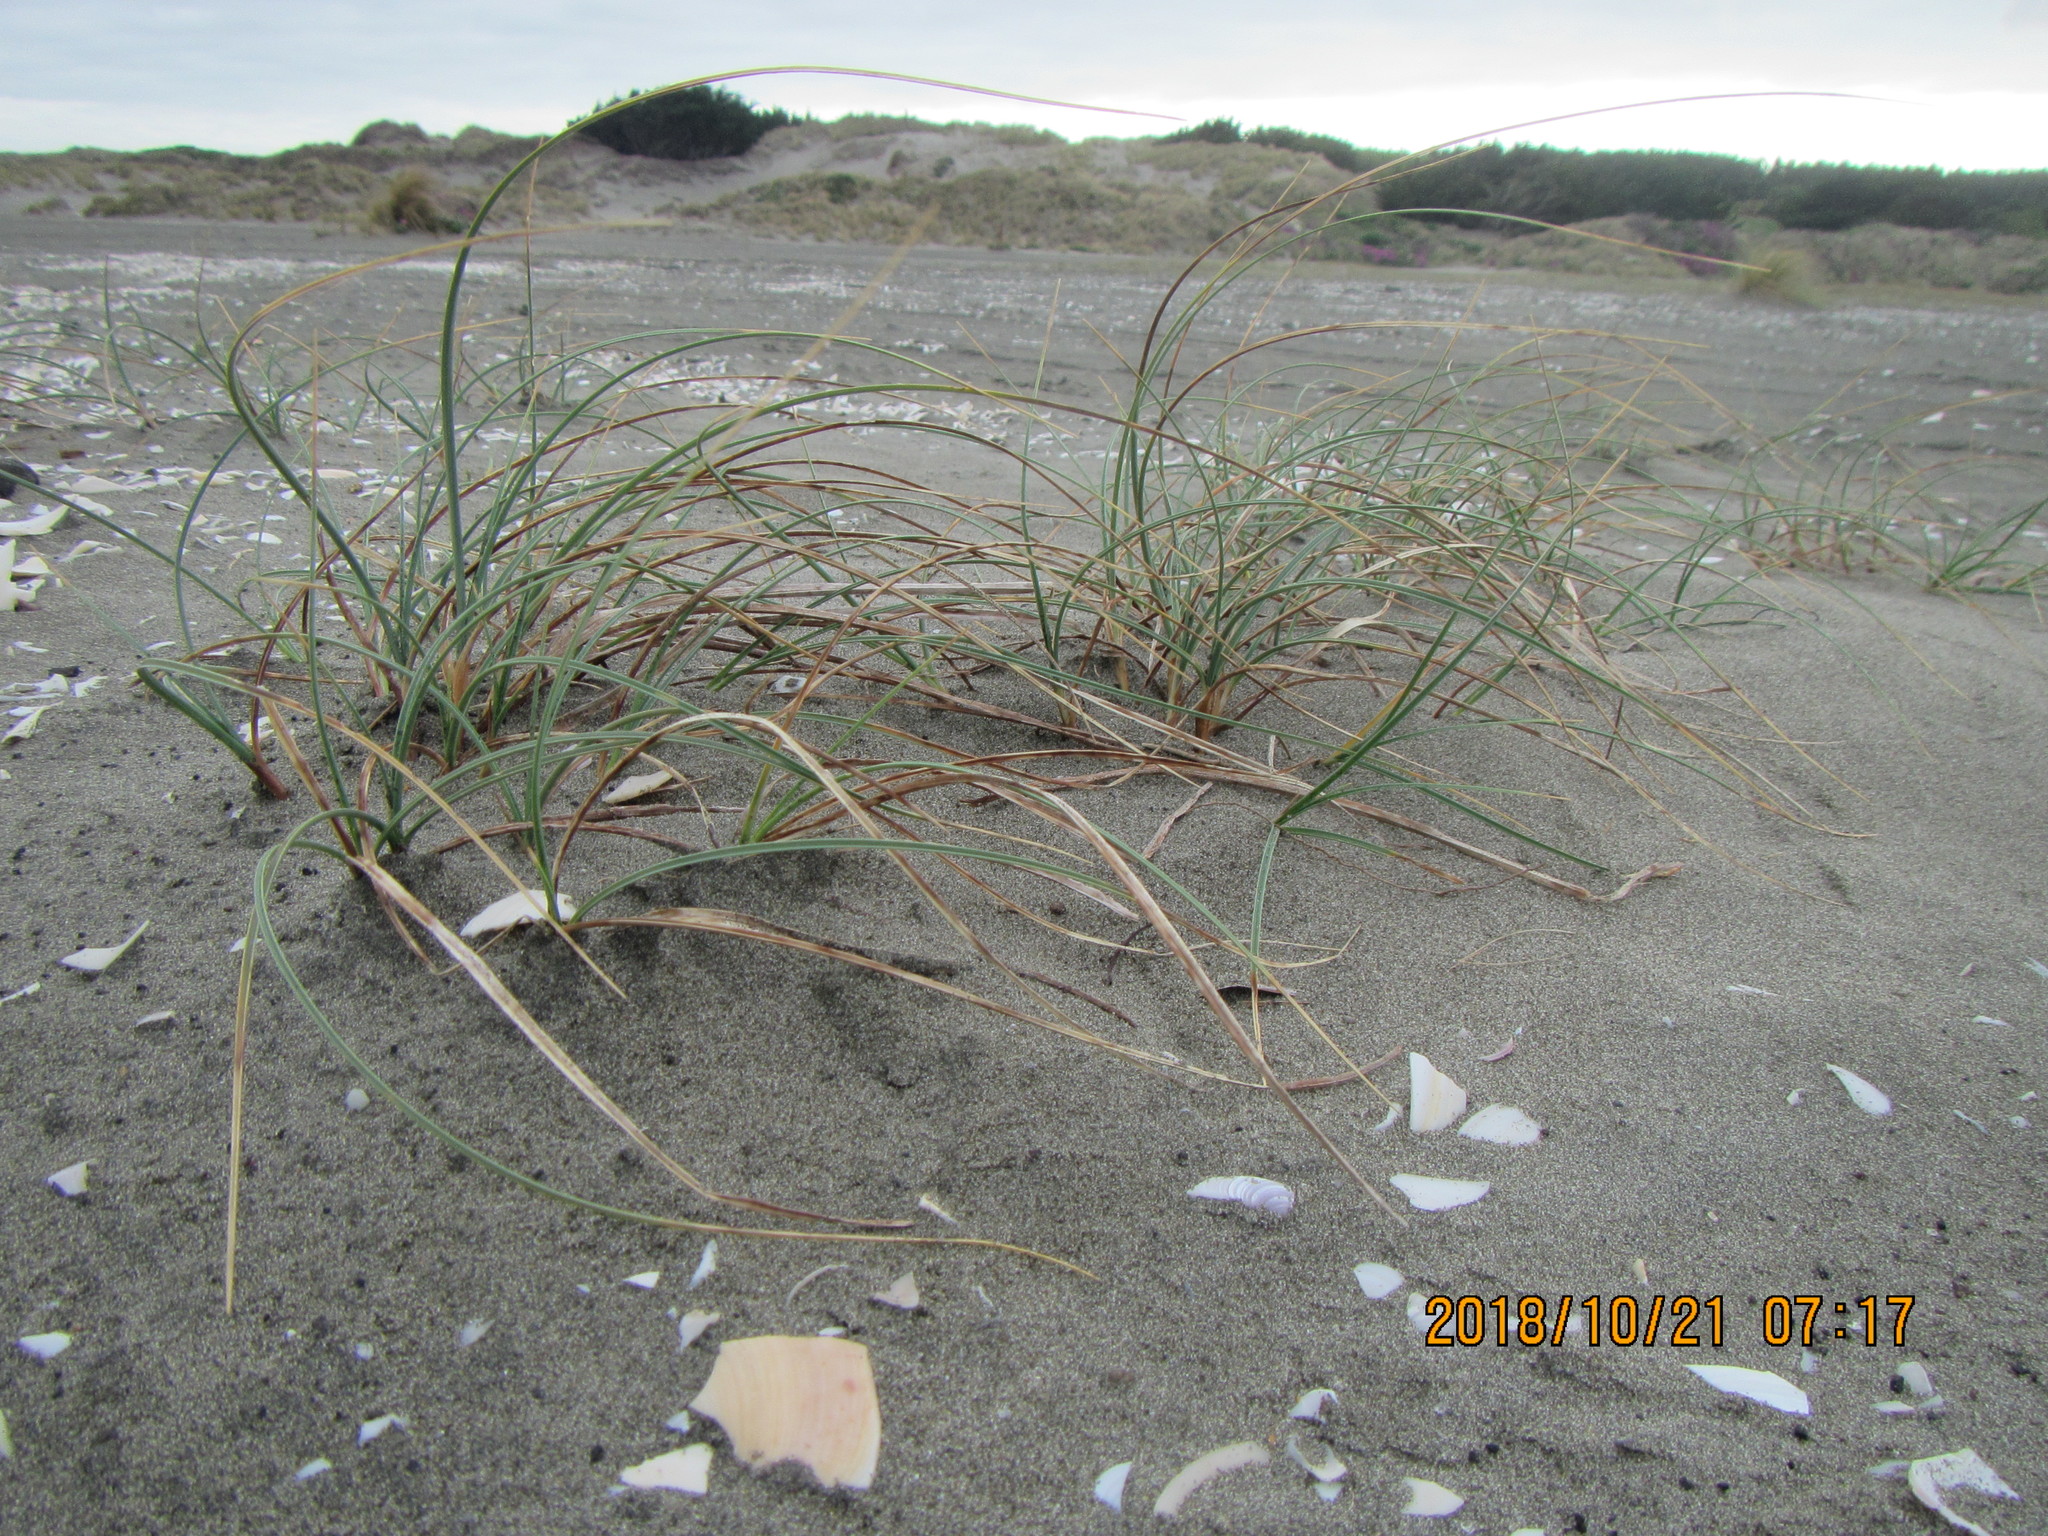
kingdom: Plantae
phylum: Tracheophyta
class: Liliopsida
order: Poales
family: Cyperaceae
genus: Carex
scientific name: Carex pumila
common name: Dwarf sedge
